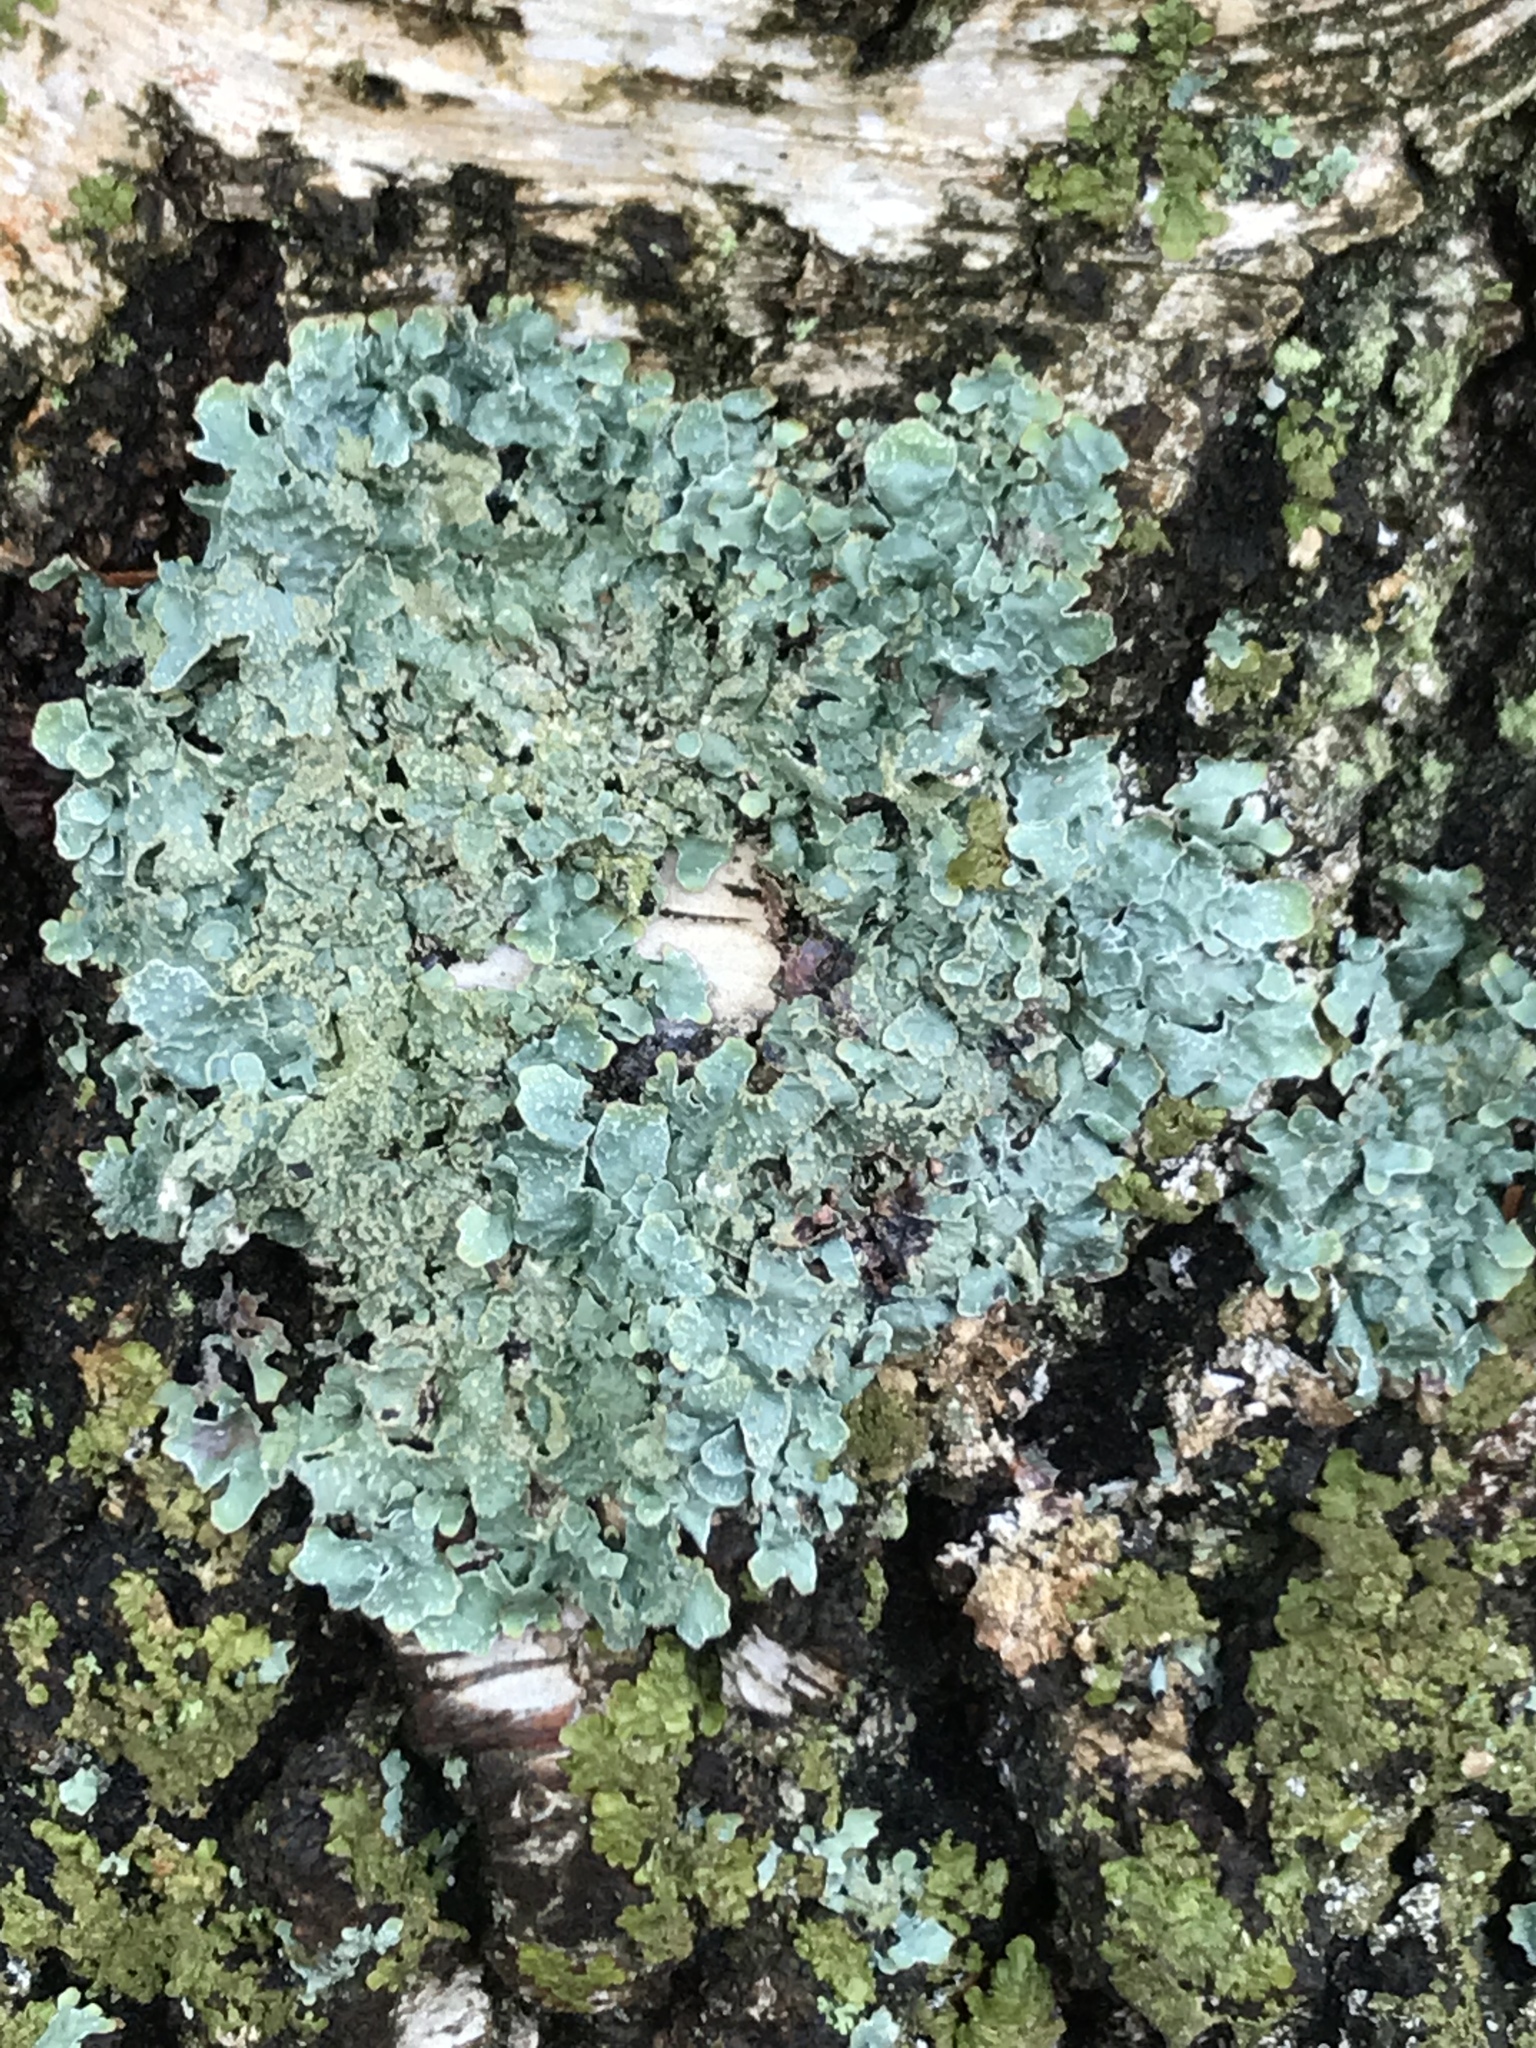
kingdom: Fungi
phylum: Ascomycota
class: Lecanoromycetes
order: Lecanorales
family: Parmeliaceae
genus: Parmelia
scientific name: Parmelia sulcata
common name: Netted shield lichen
